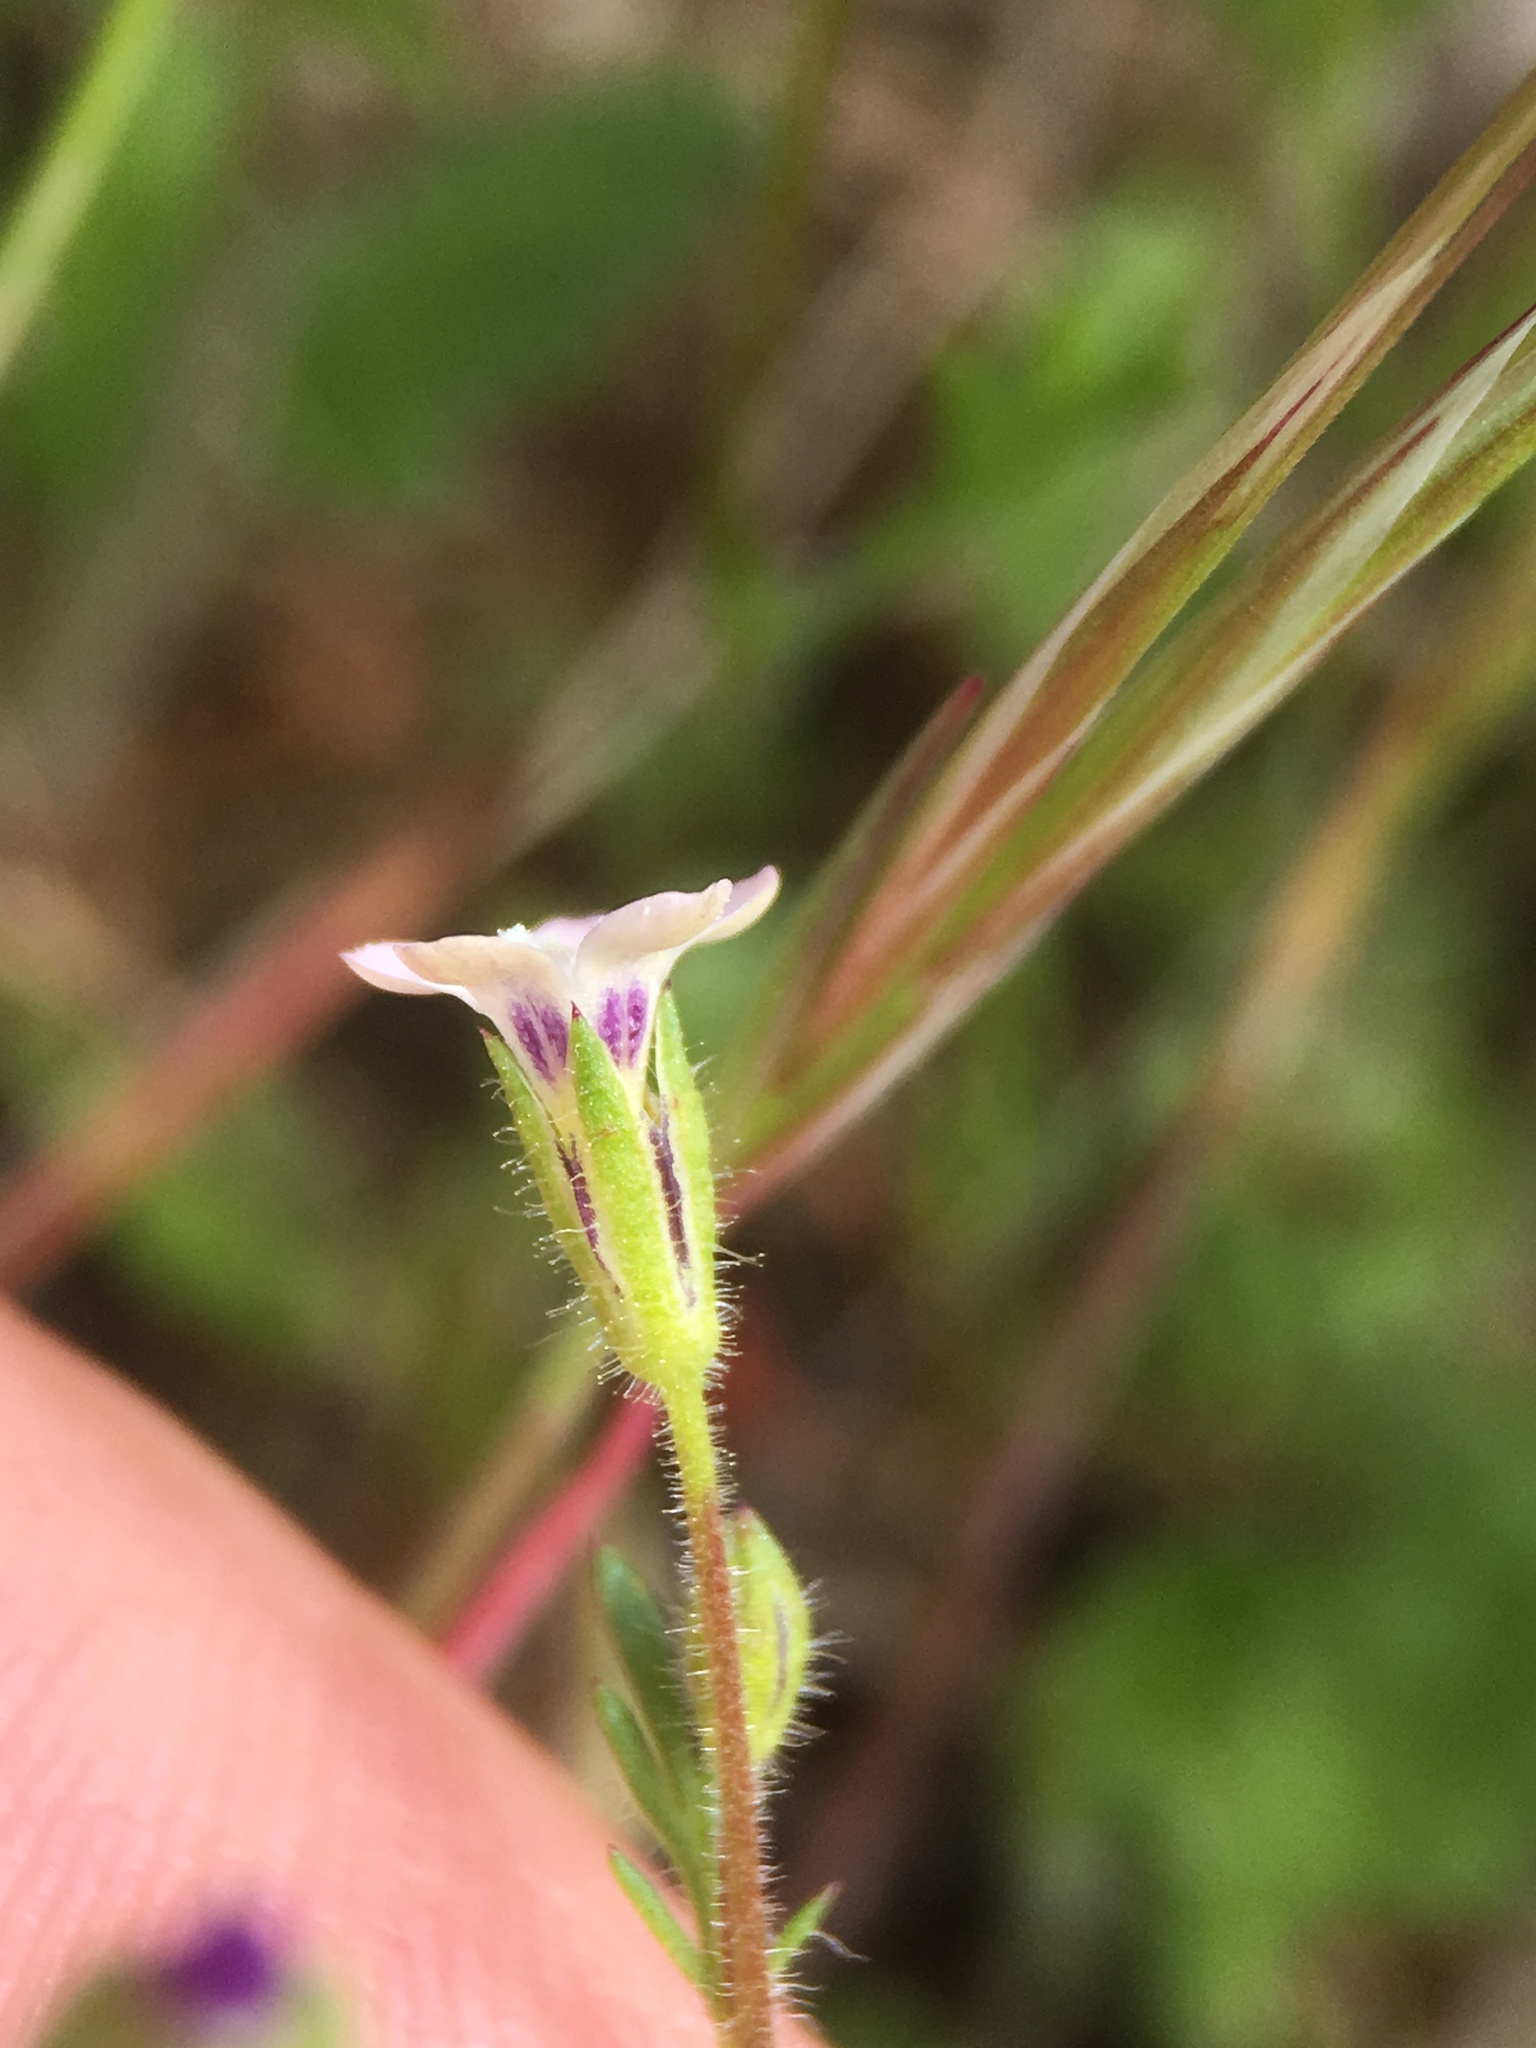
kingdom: Plantae
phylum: Tracheophyta
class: Magnoliopsida
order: Ericales
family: Polemoniaceae
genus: Gilia
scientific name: Gilia clivorum
